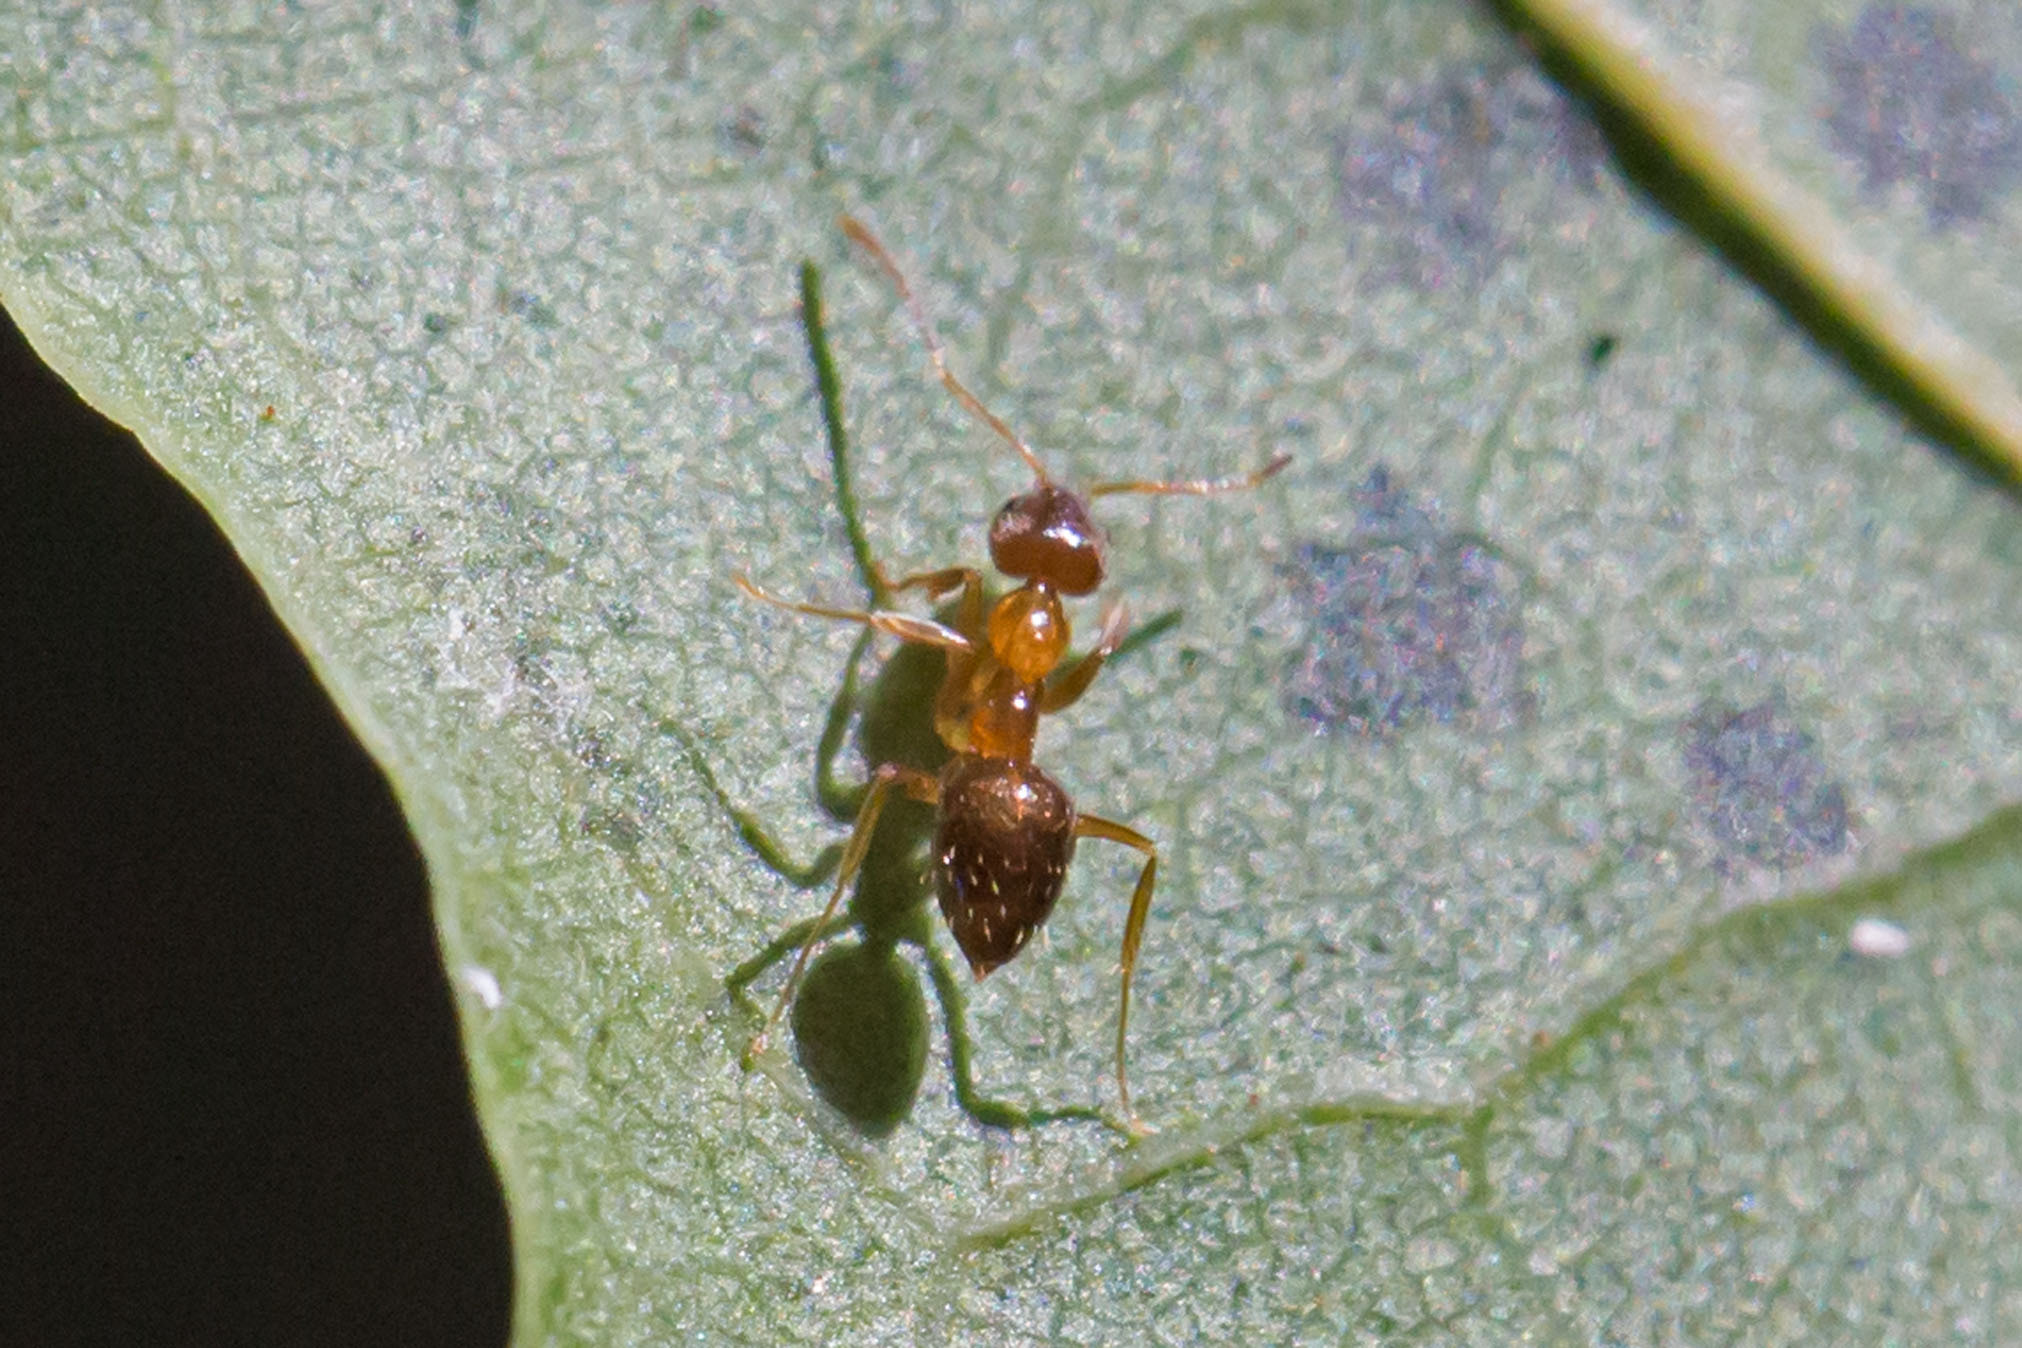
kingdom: Animalia
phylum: Arthropoda
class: Insecta
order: Hymenoptera
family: Formicidae
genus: Paratrechina
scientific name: Paratrechina flavipes
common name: Eastern asian formicine ant
